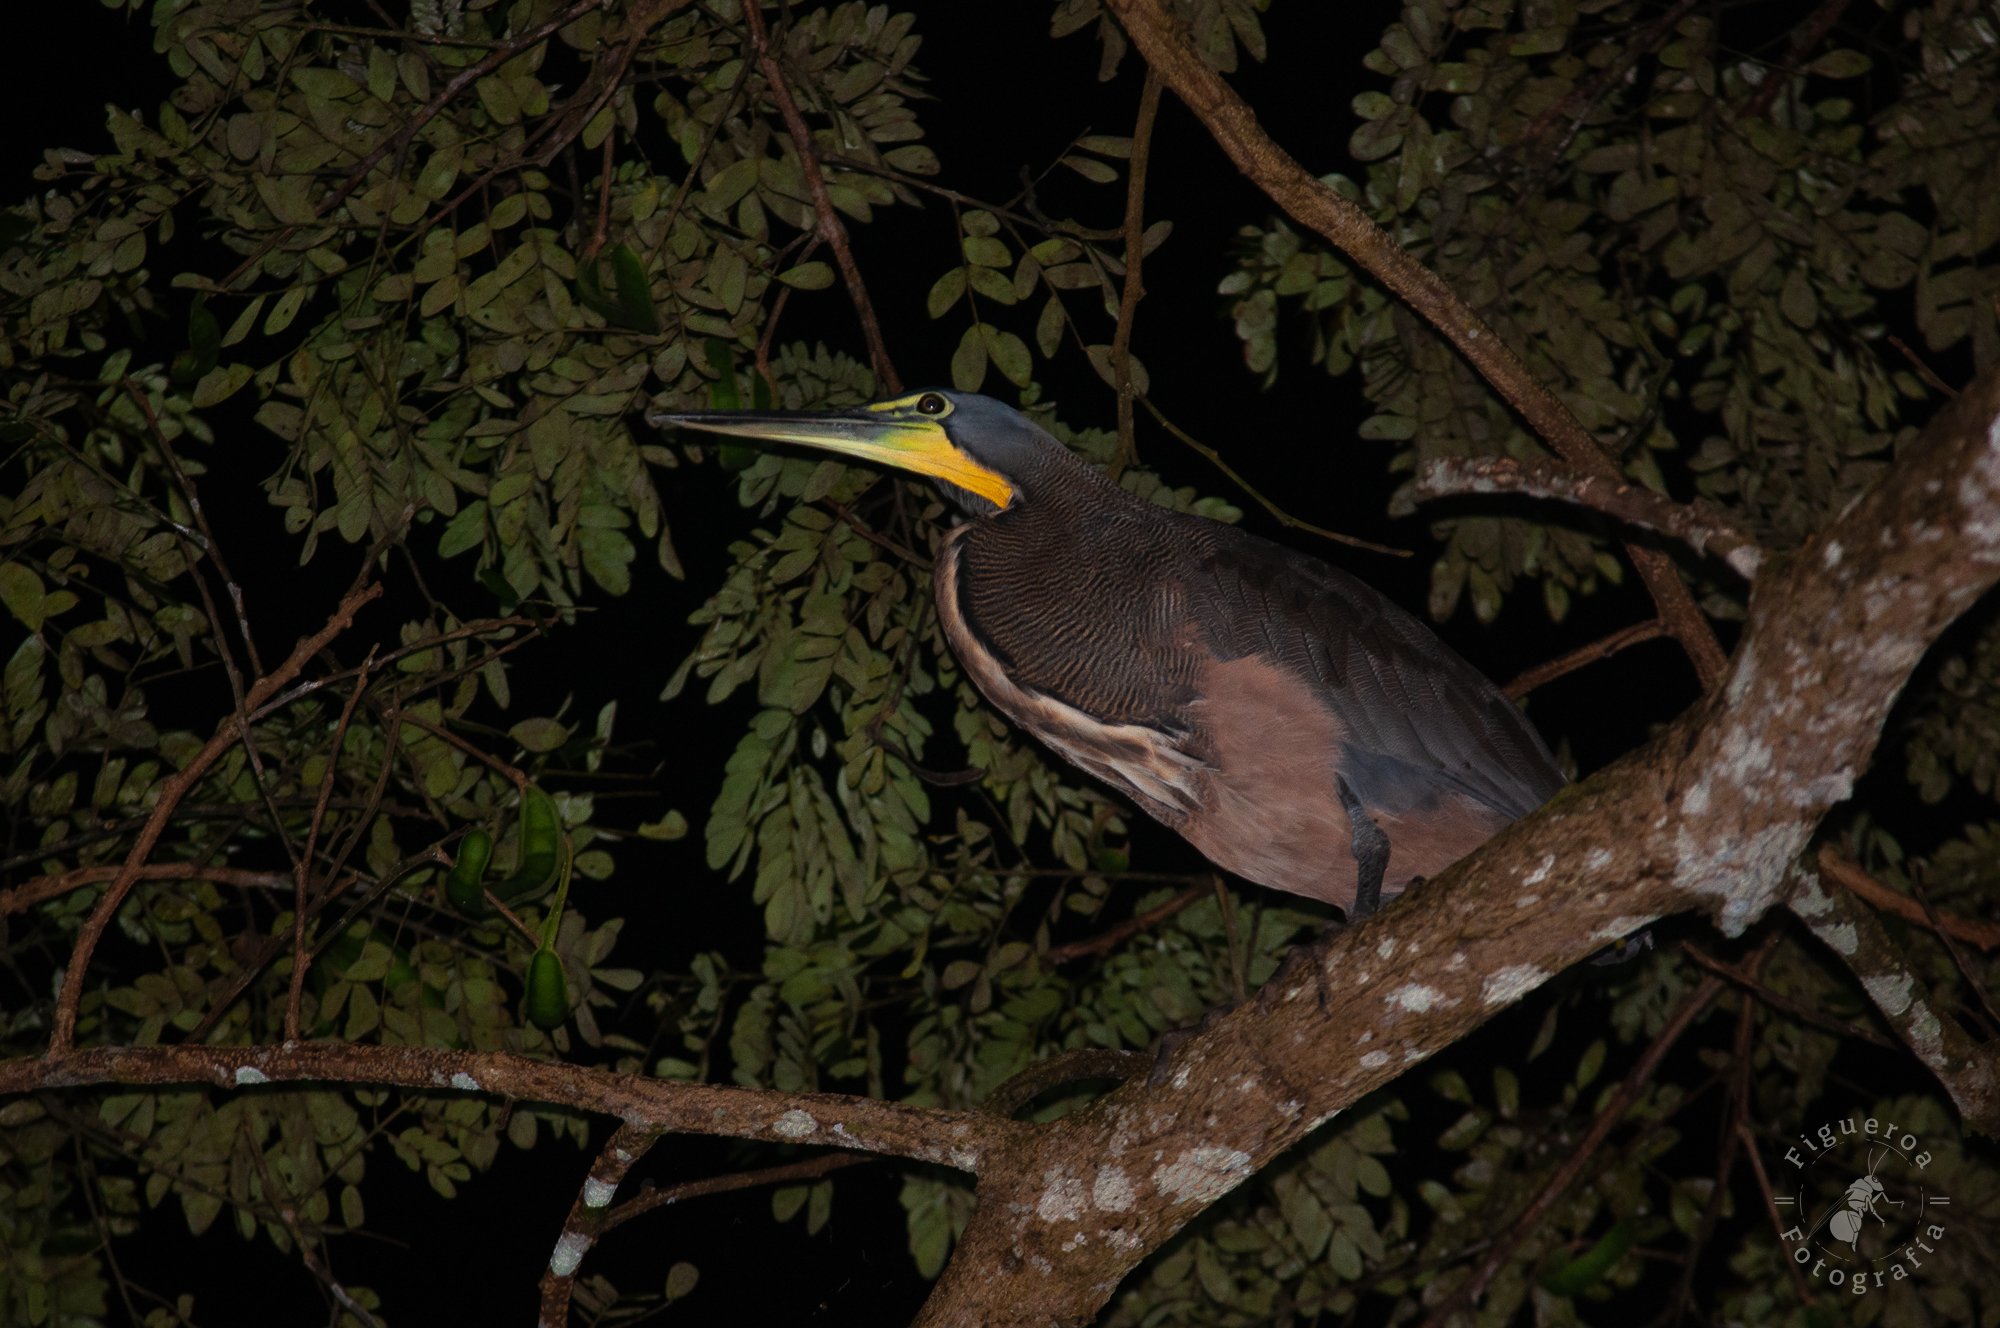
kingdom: Animalia
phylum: Chordata
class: Aves
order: Pelecaniformes
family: Ardeidae
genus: Tigrisoma
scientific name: Tigrisoma mexicanum
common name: Bare-throated tiger-heron
